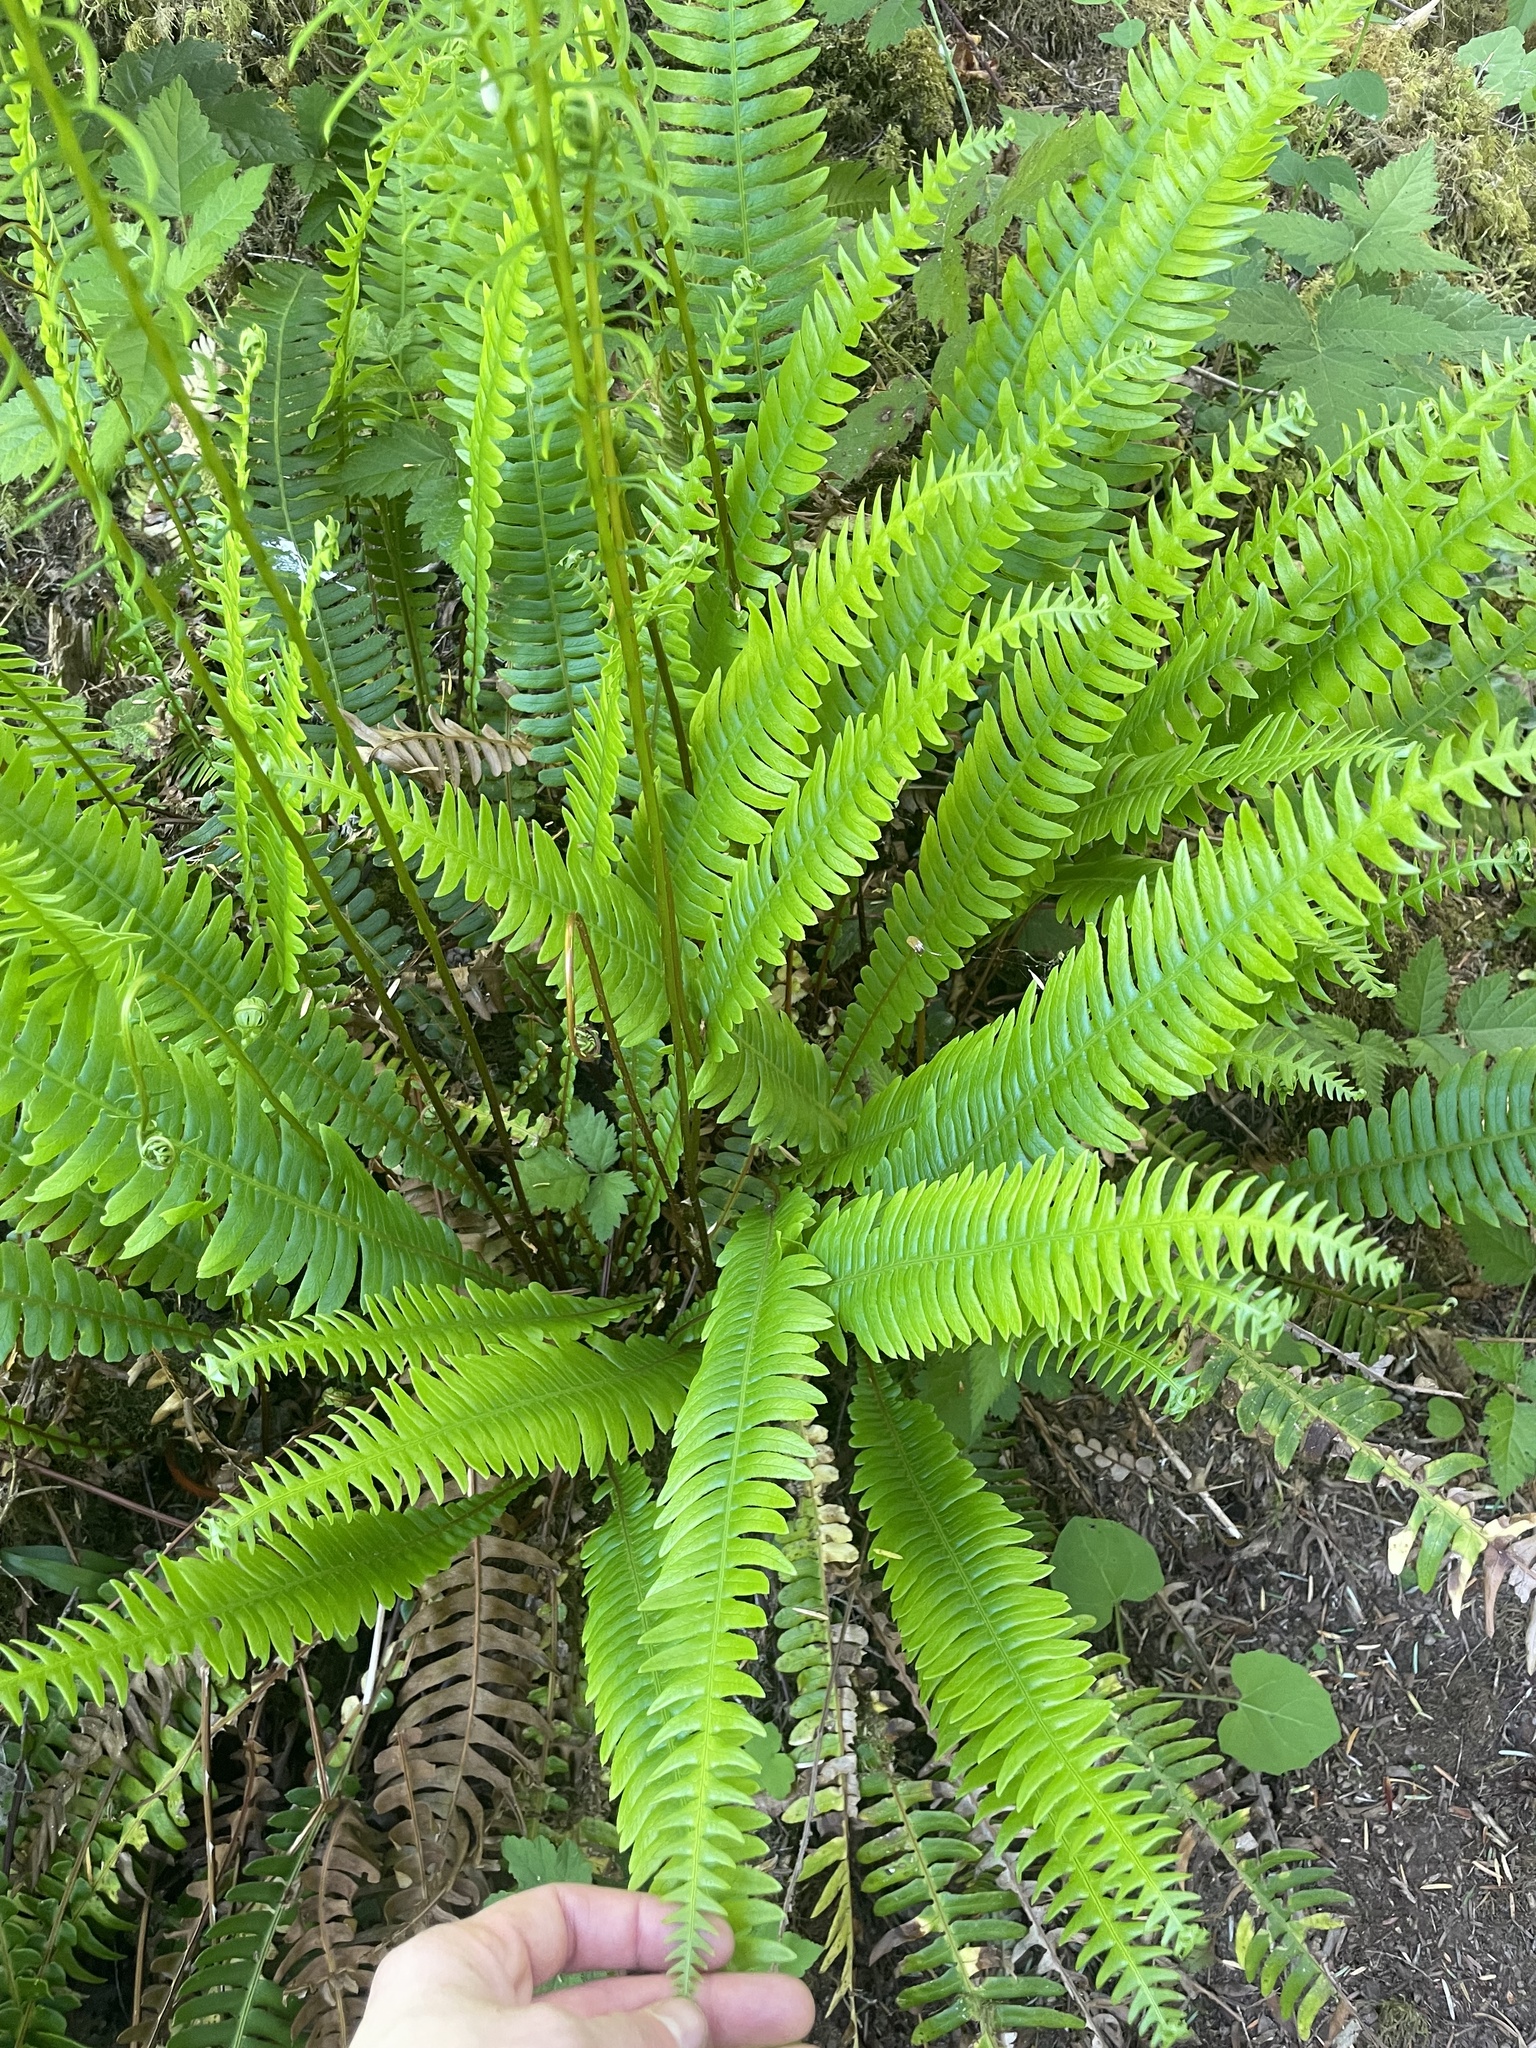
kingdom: Plantae
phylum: Tracheophyta
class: Polypodiopsida
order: Polypodiales
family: Blechnaceae
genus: Struthiopteris
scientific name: Struthiopteris spicant
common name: Deer fern
